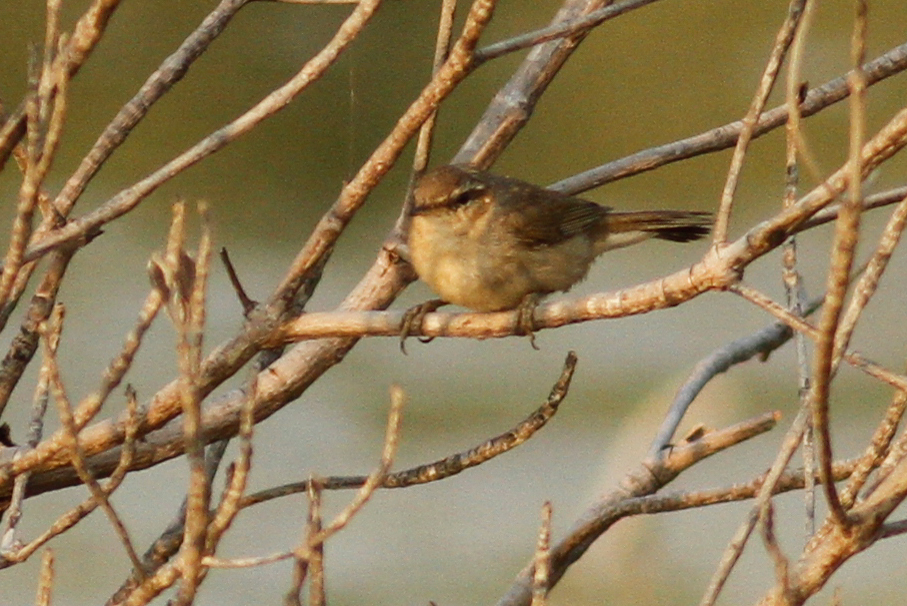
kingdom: Animalia
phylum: Chordata
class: Aves
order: Passeriformes
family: Phylloscopidae
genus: Phylloscopus
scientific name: Phylloscopus fuscatus
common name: Dusky warbler
